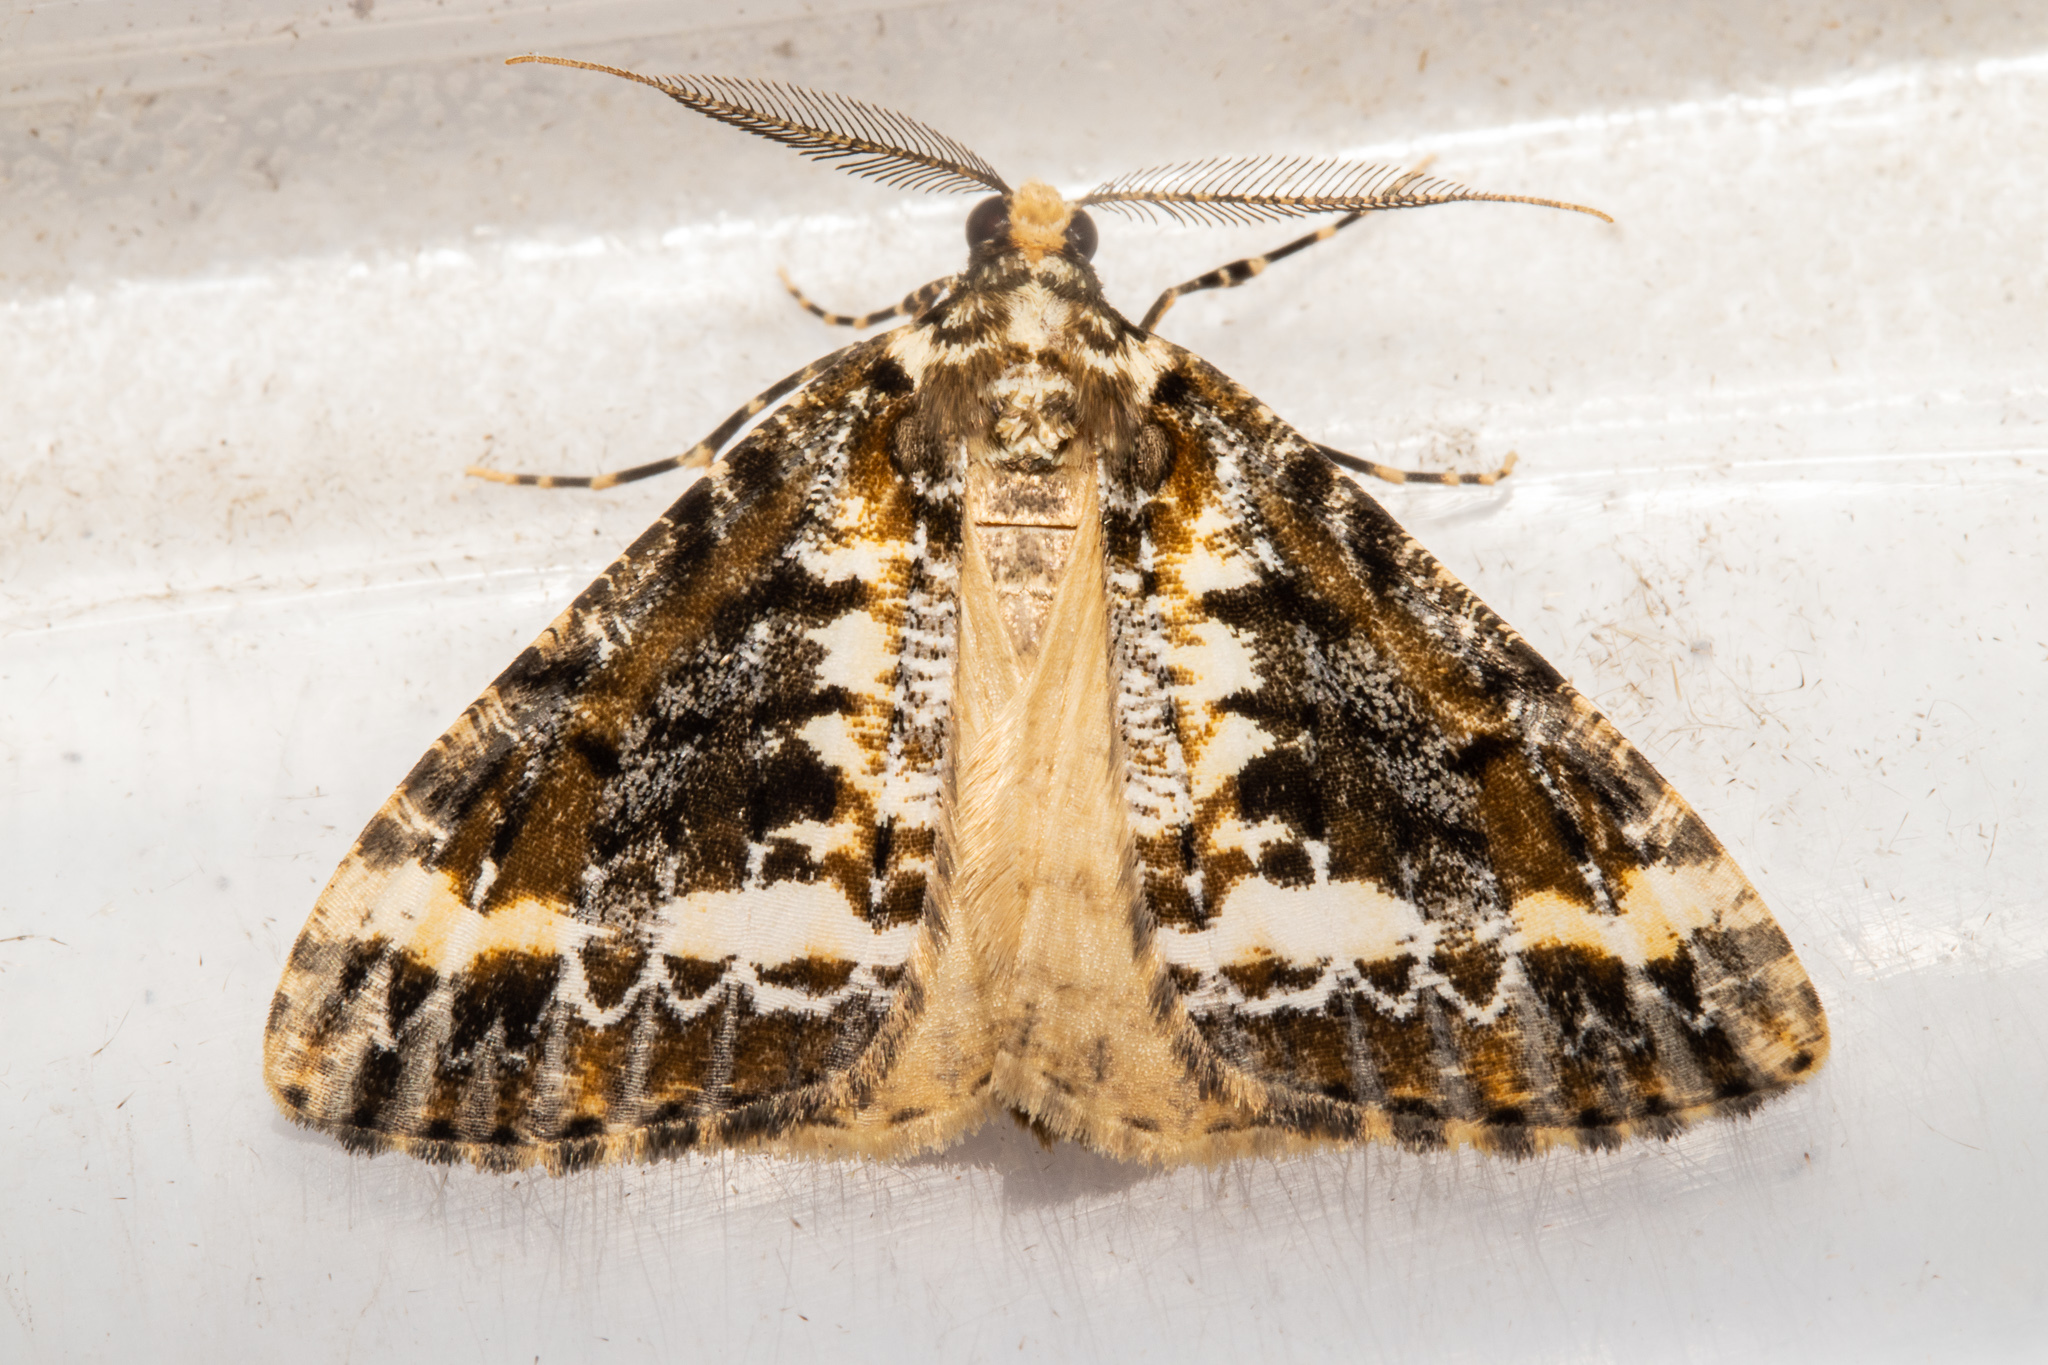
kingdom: Animalia
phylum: Arthropoda
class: Insecta
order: Lepidoptera
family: Geometridae
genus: Pseudocoremia
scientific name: Pseudocoremia leucelaea
